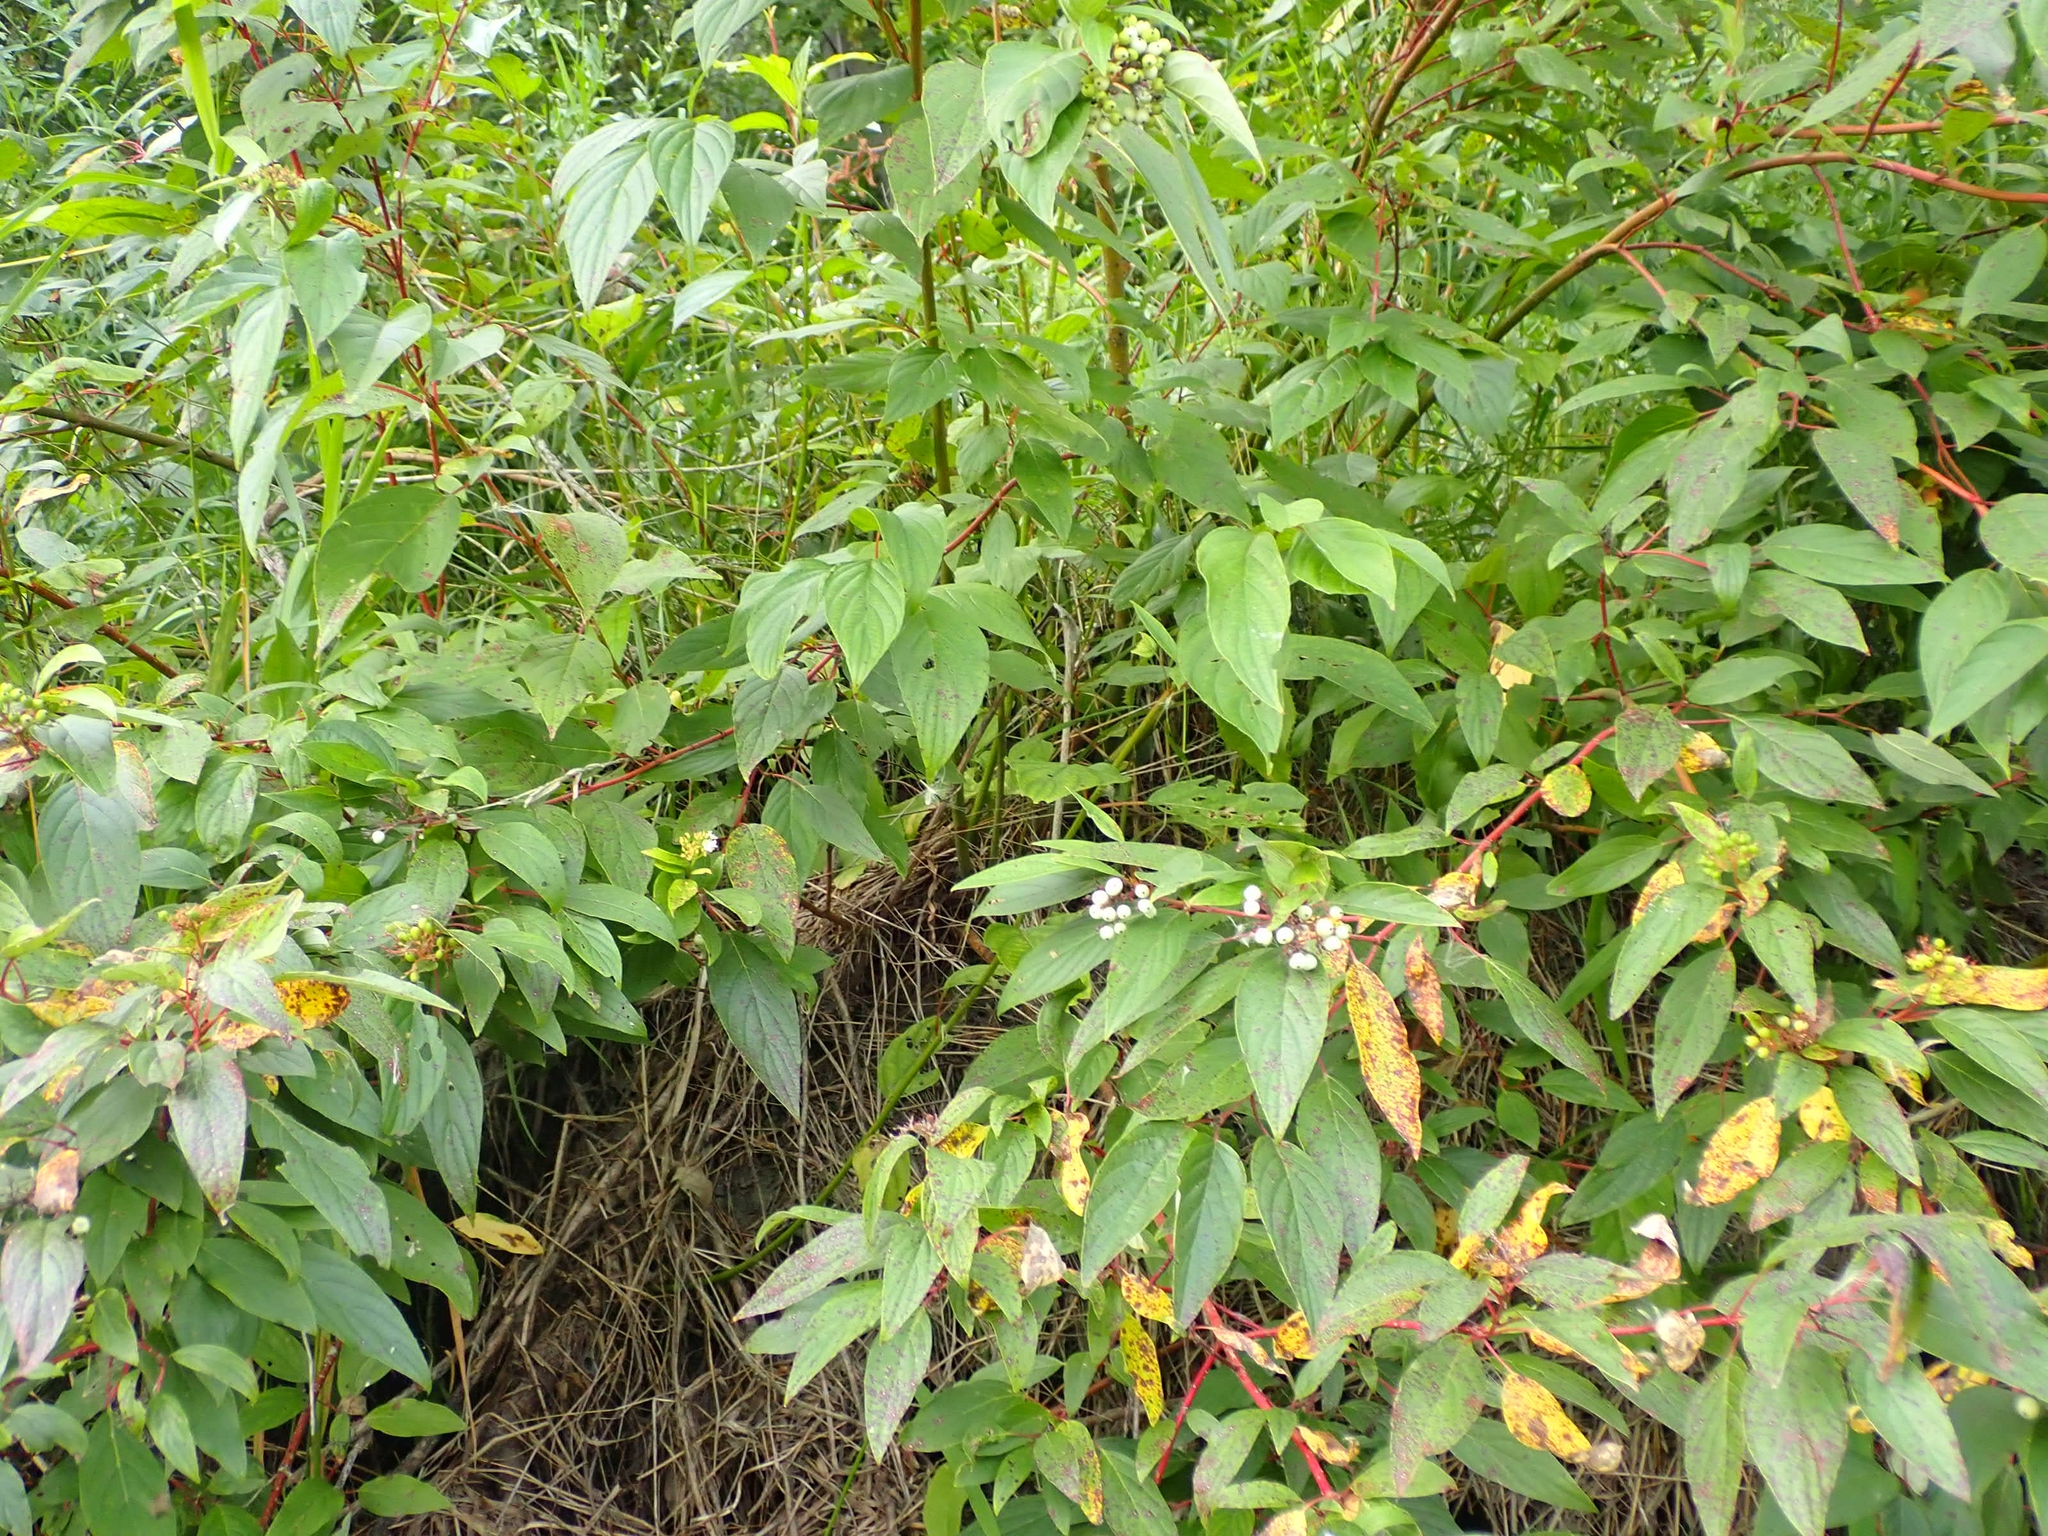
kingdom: Plantae
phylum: Tracheophyta
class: Magnoliopsida
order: Cornales
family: Cornaceae
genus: Cornus
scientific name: Cornus sericea
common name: Red-osier dogwood
